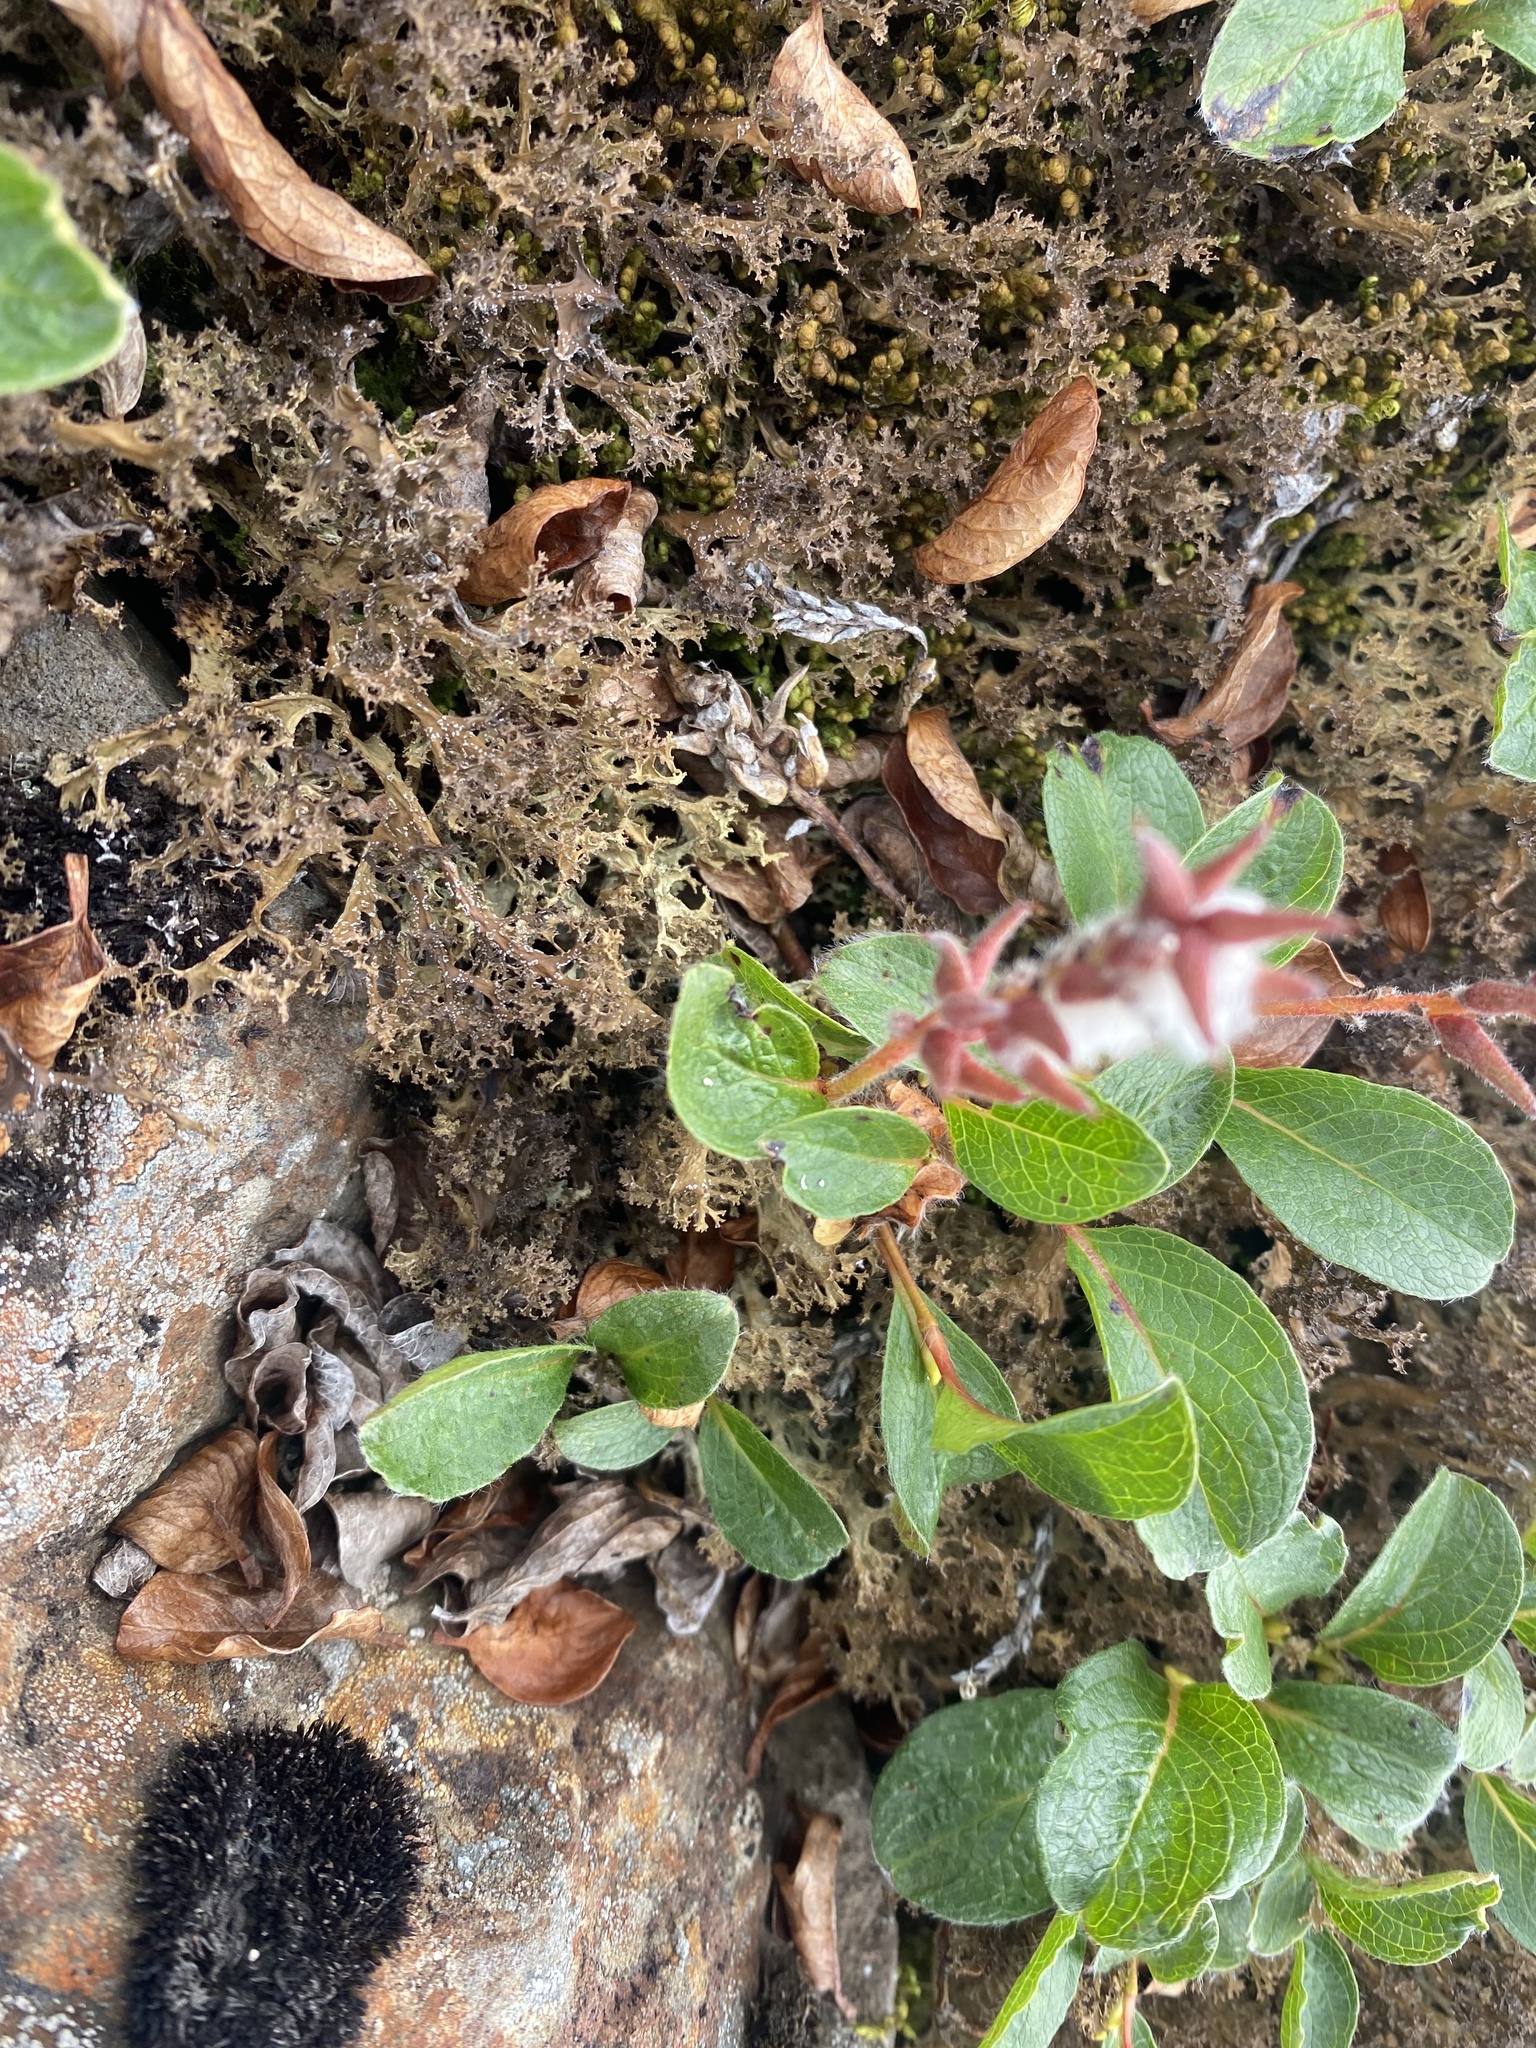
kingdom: Plantae
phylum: Tracheophyta
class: Magnoliopsida
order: Malpighiales
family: Salicaceae
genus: Salix
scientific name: Salix polaris
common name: Polar willow
